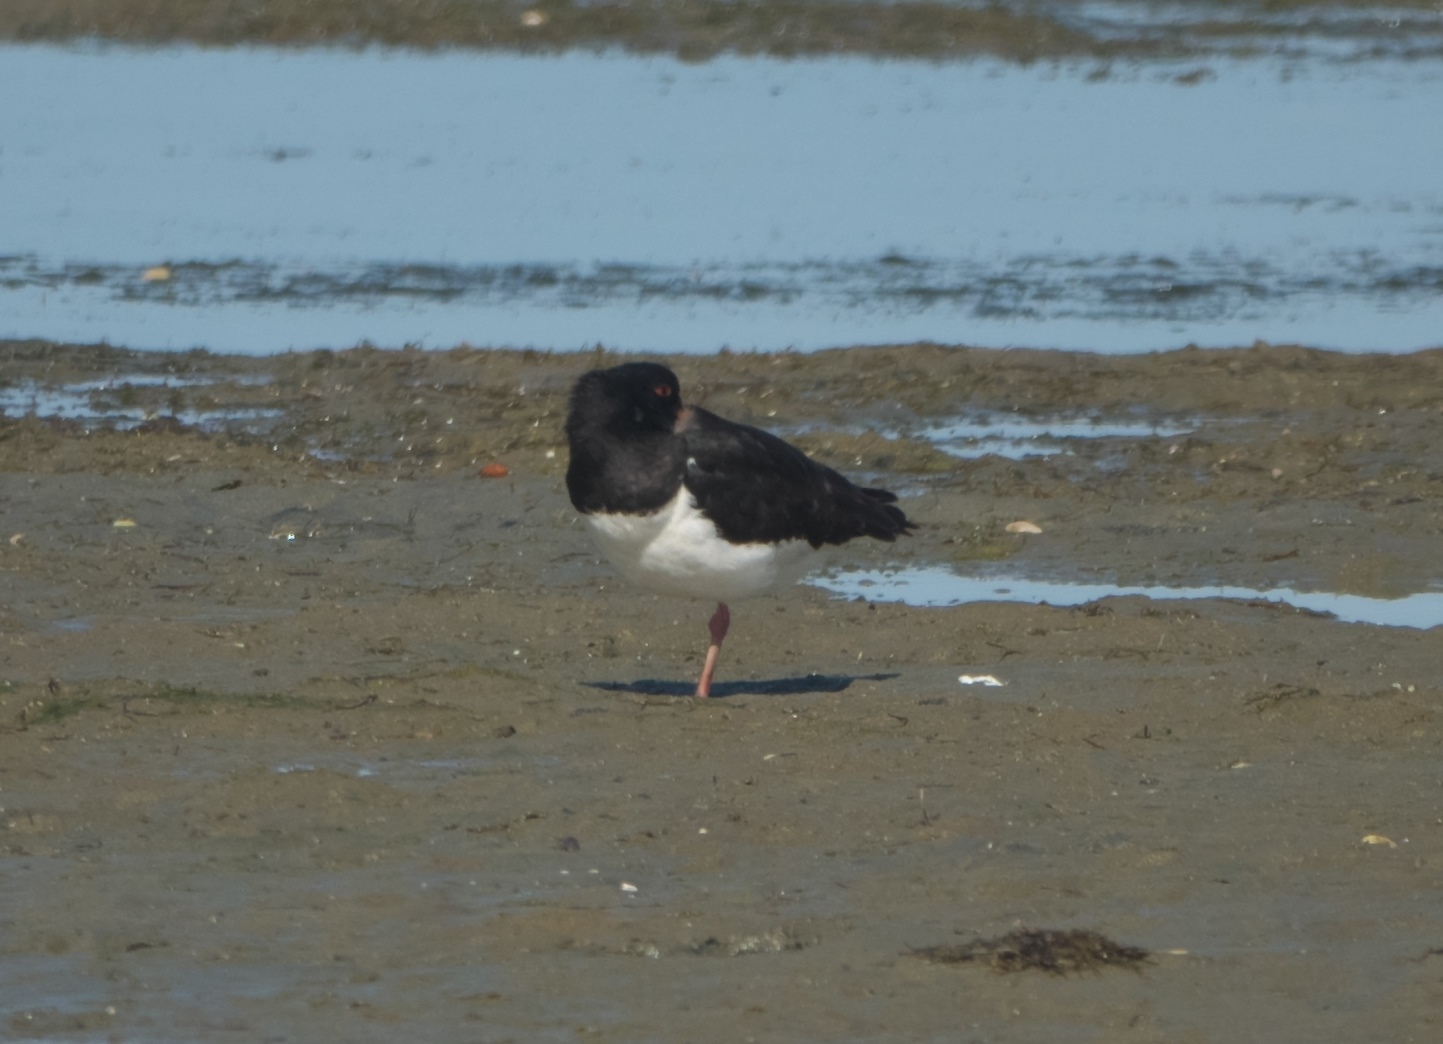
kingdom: Animalia
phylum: Chordata
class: Aves
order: Charadriiformes
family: Haematopodidae
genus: Haematopus
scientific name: Haematopus finschi
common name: South island oystercatcher
